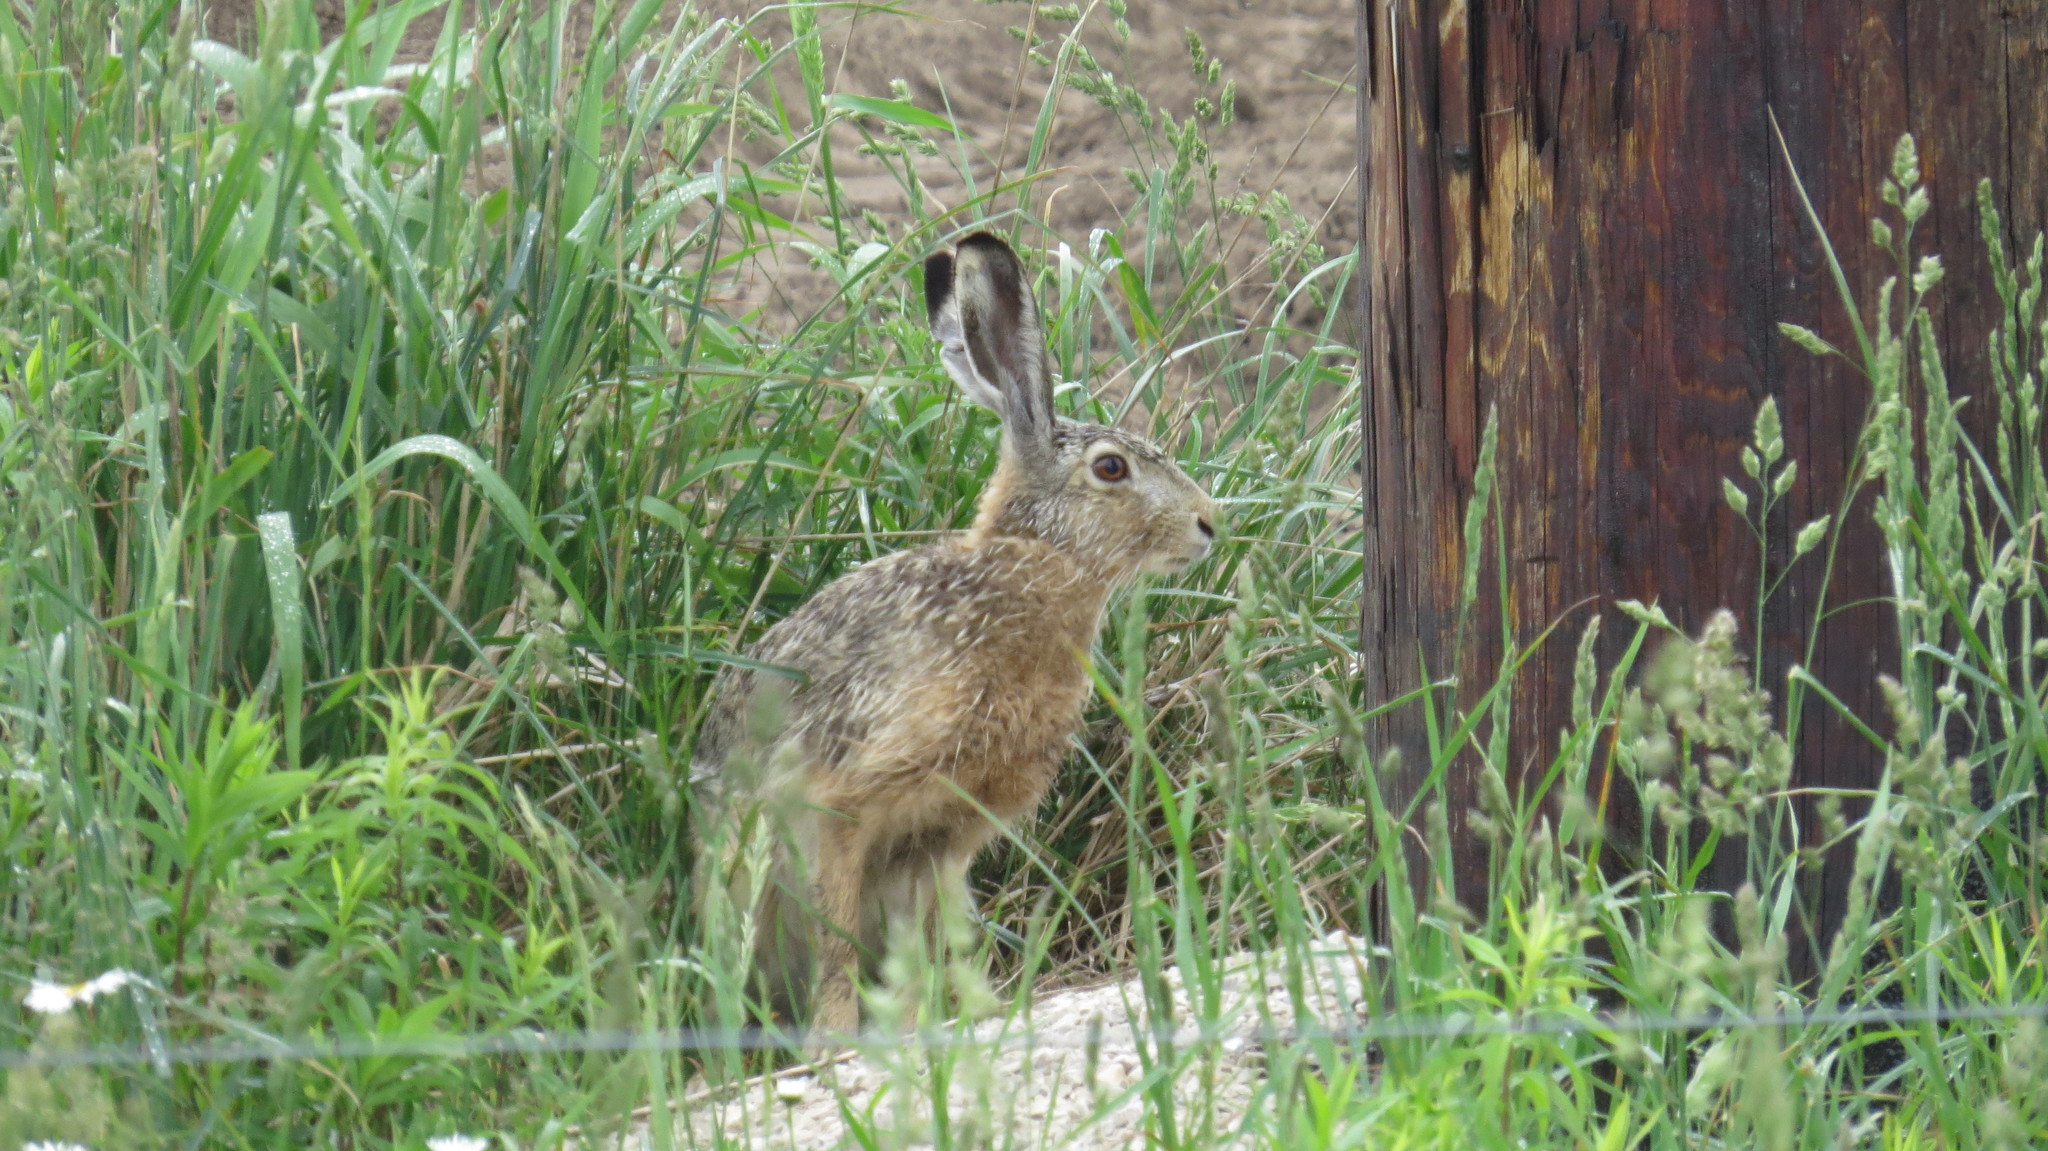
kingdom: Animalia
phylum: Chordata
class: Mammalia
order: Lagomorpha
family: Leporidae
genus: Lepus
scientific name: Lepus europaeus
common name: European hare
